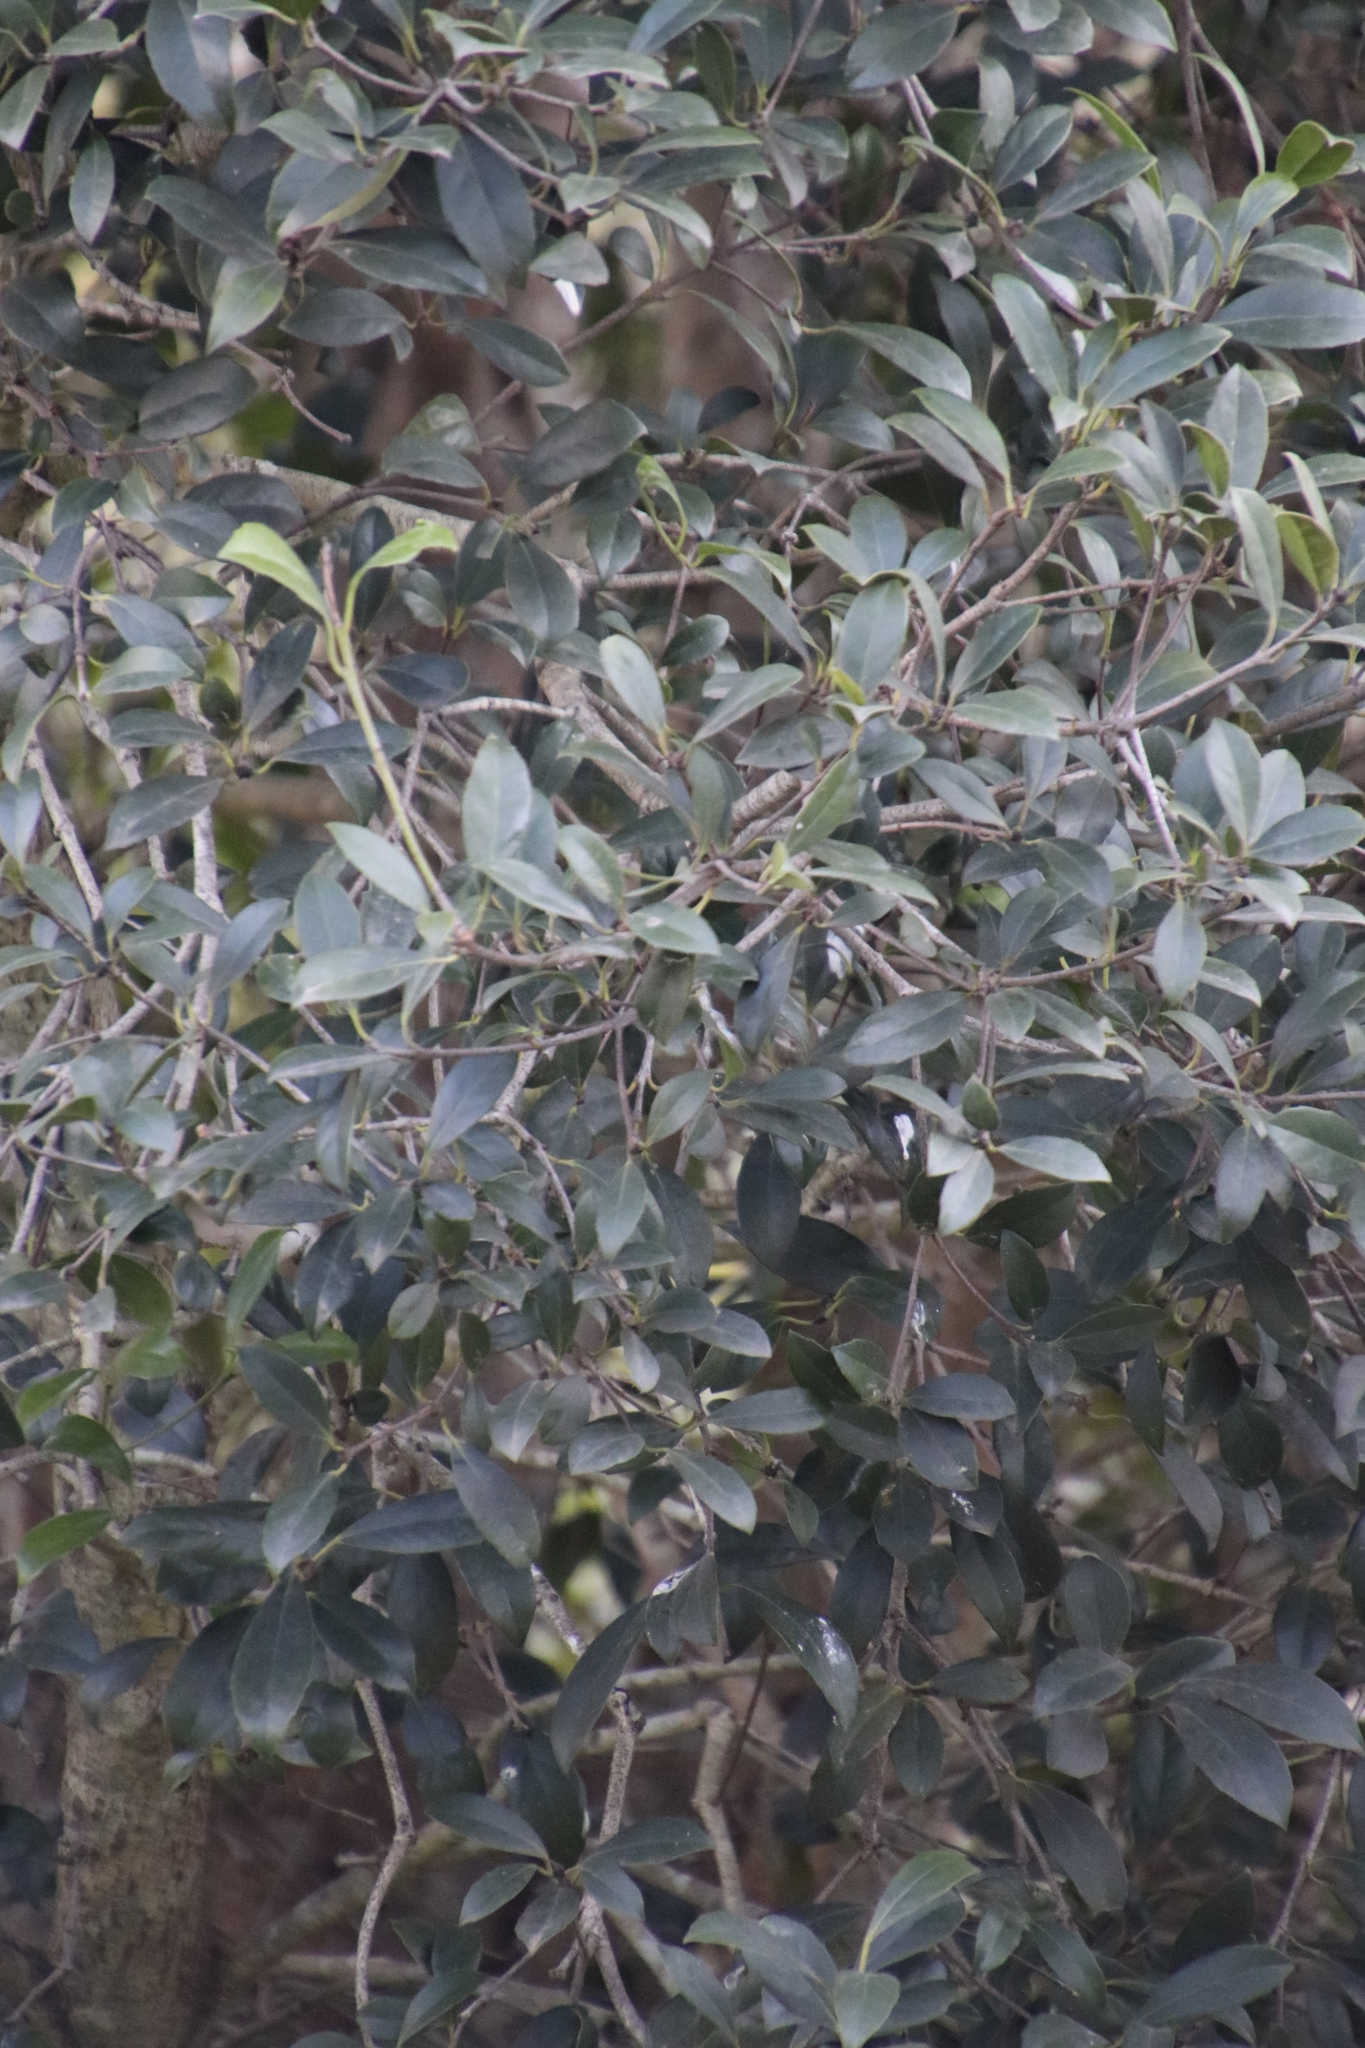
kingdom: Plantae
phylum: Tracheophyta
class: Magnoliopsida
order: Celastrales
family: Celastraceae
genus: Elaeodendron
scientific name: Elaeodendron croceum
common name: Saffron
